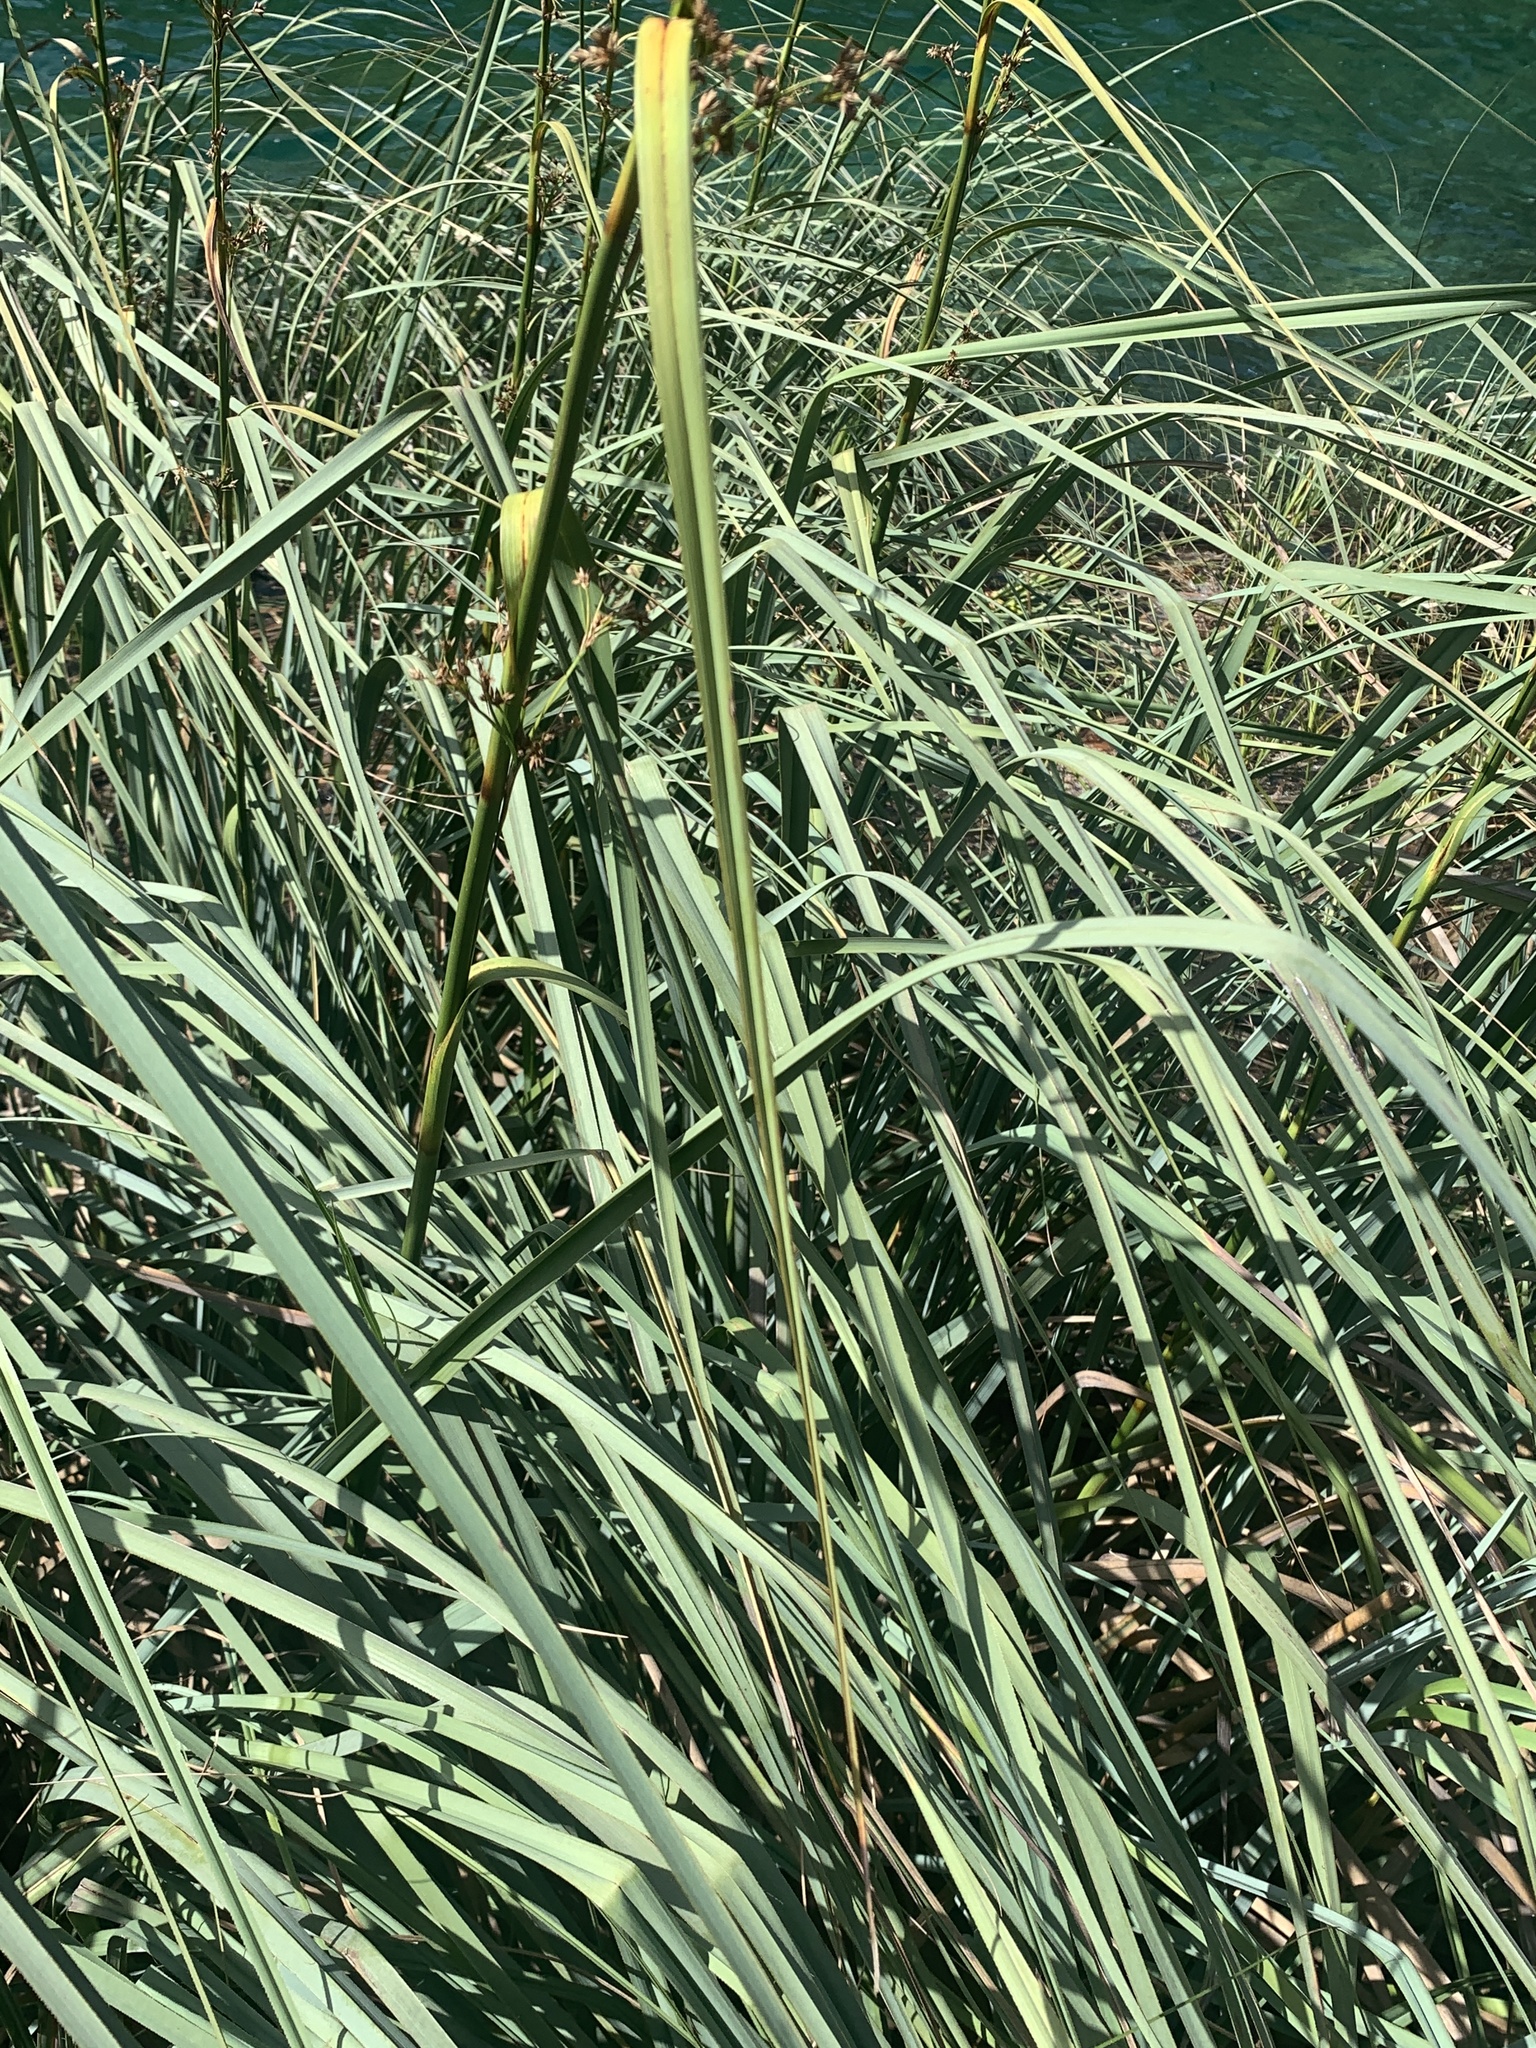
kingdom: Plantae
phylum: Tracheophyta
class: Liliopsida
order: Poales
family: Cyperaceae
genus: Cladium
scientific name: Cladium mariscus
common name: Great fen-sedge
